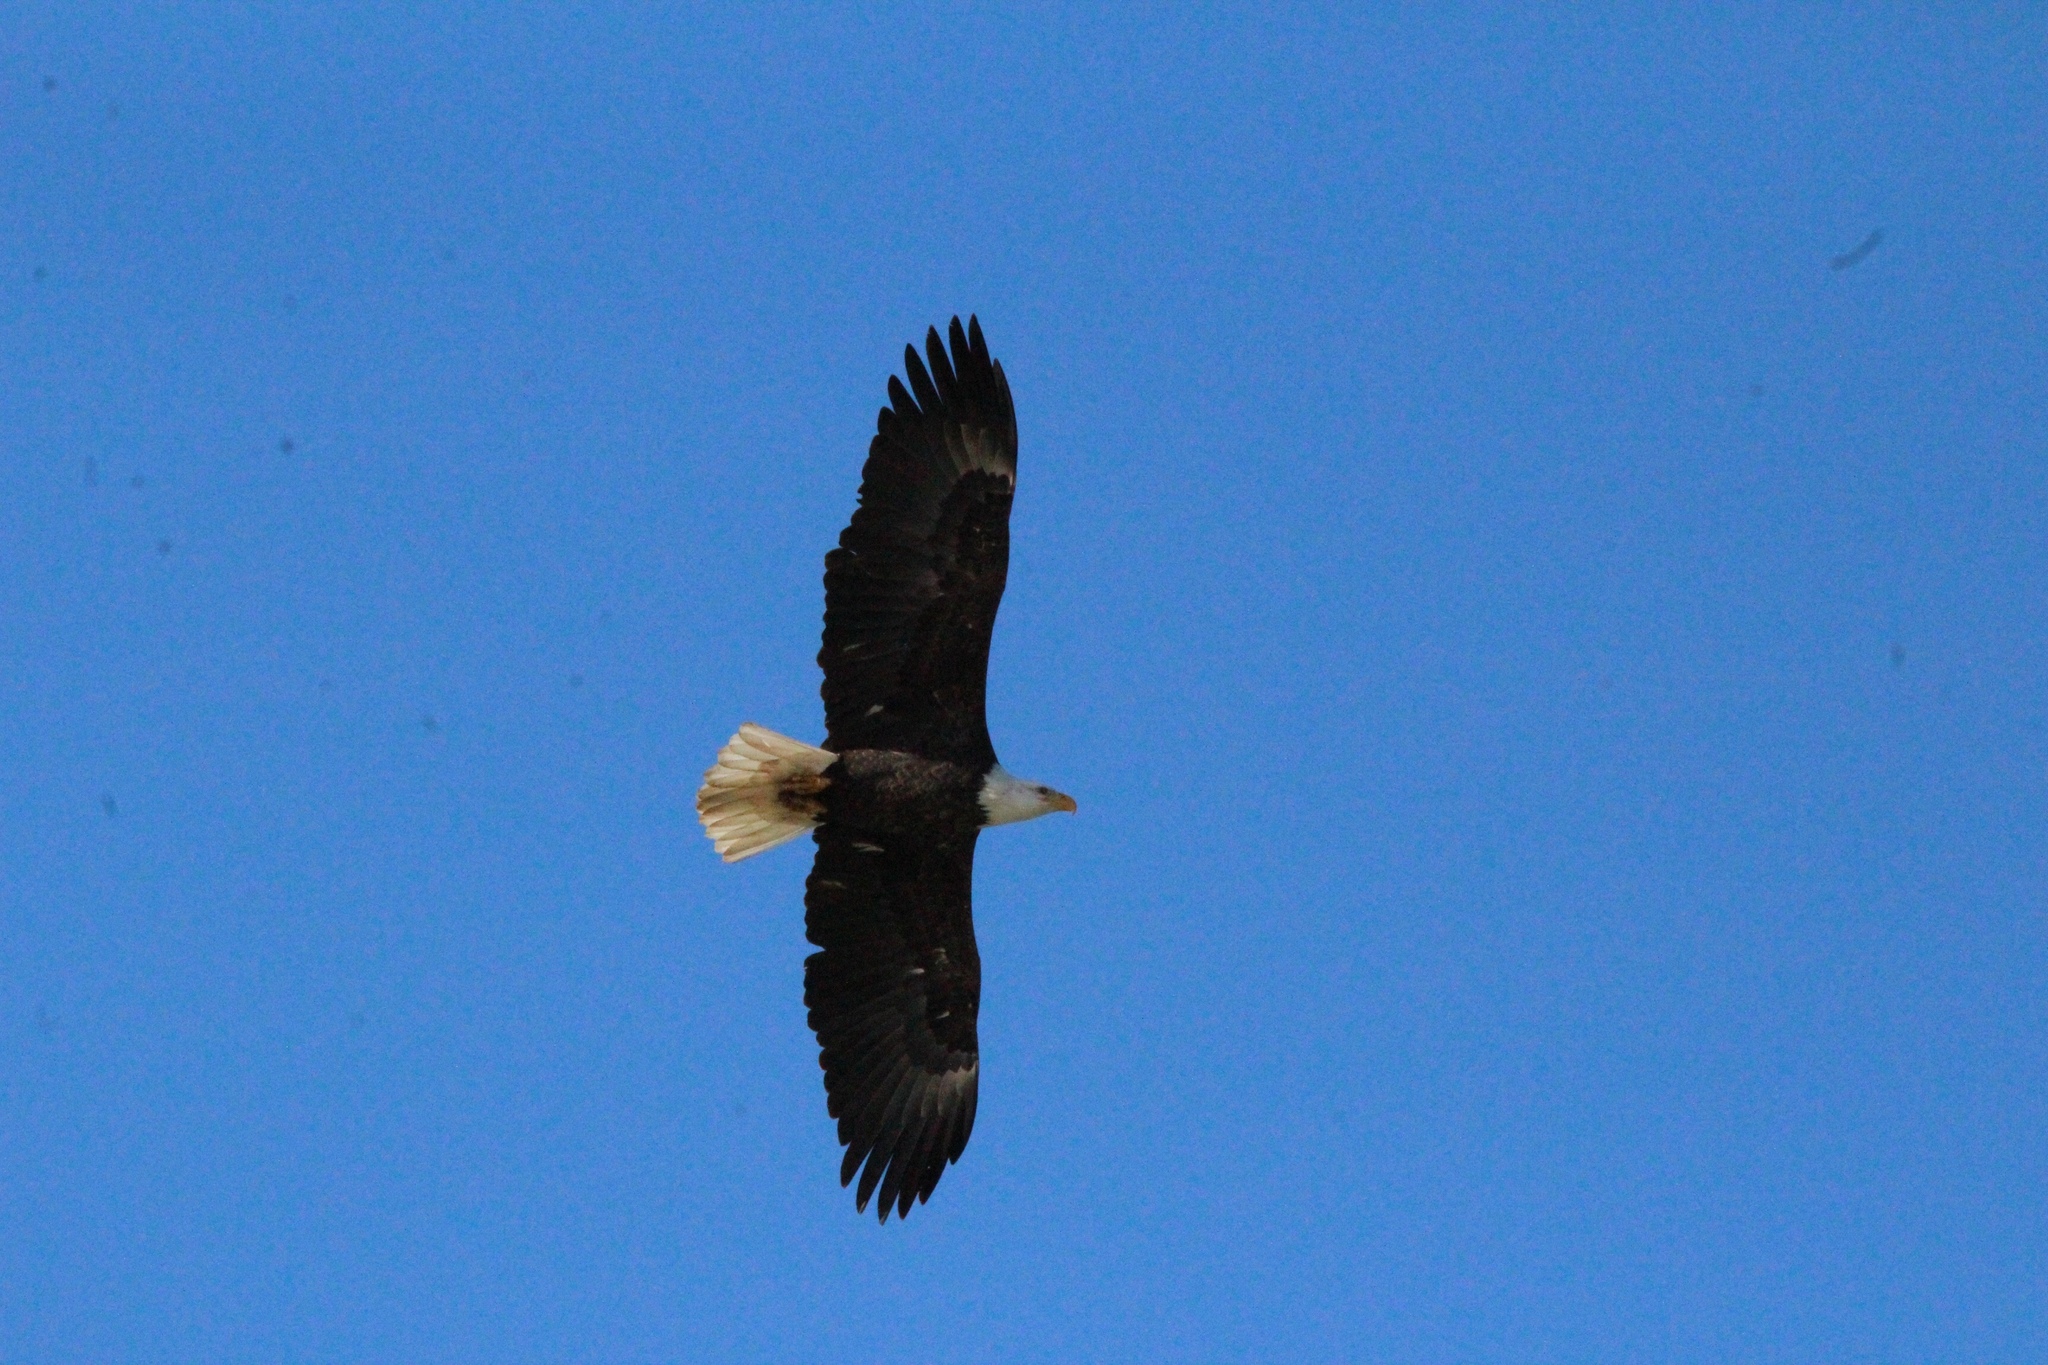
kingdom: Animalia
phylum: Chordata
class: Aves
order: Accipitriformes
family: Accipitridae
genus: Haliaeetus
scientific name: Haliaeetus leucocephalus
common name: Bald eagle
